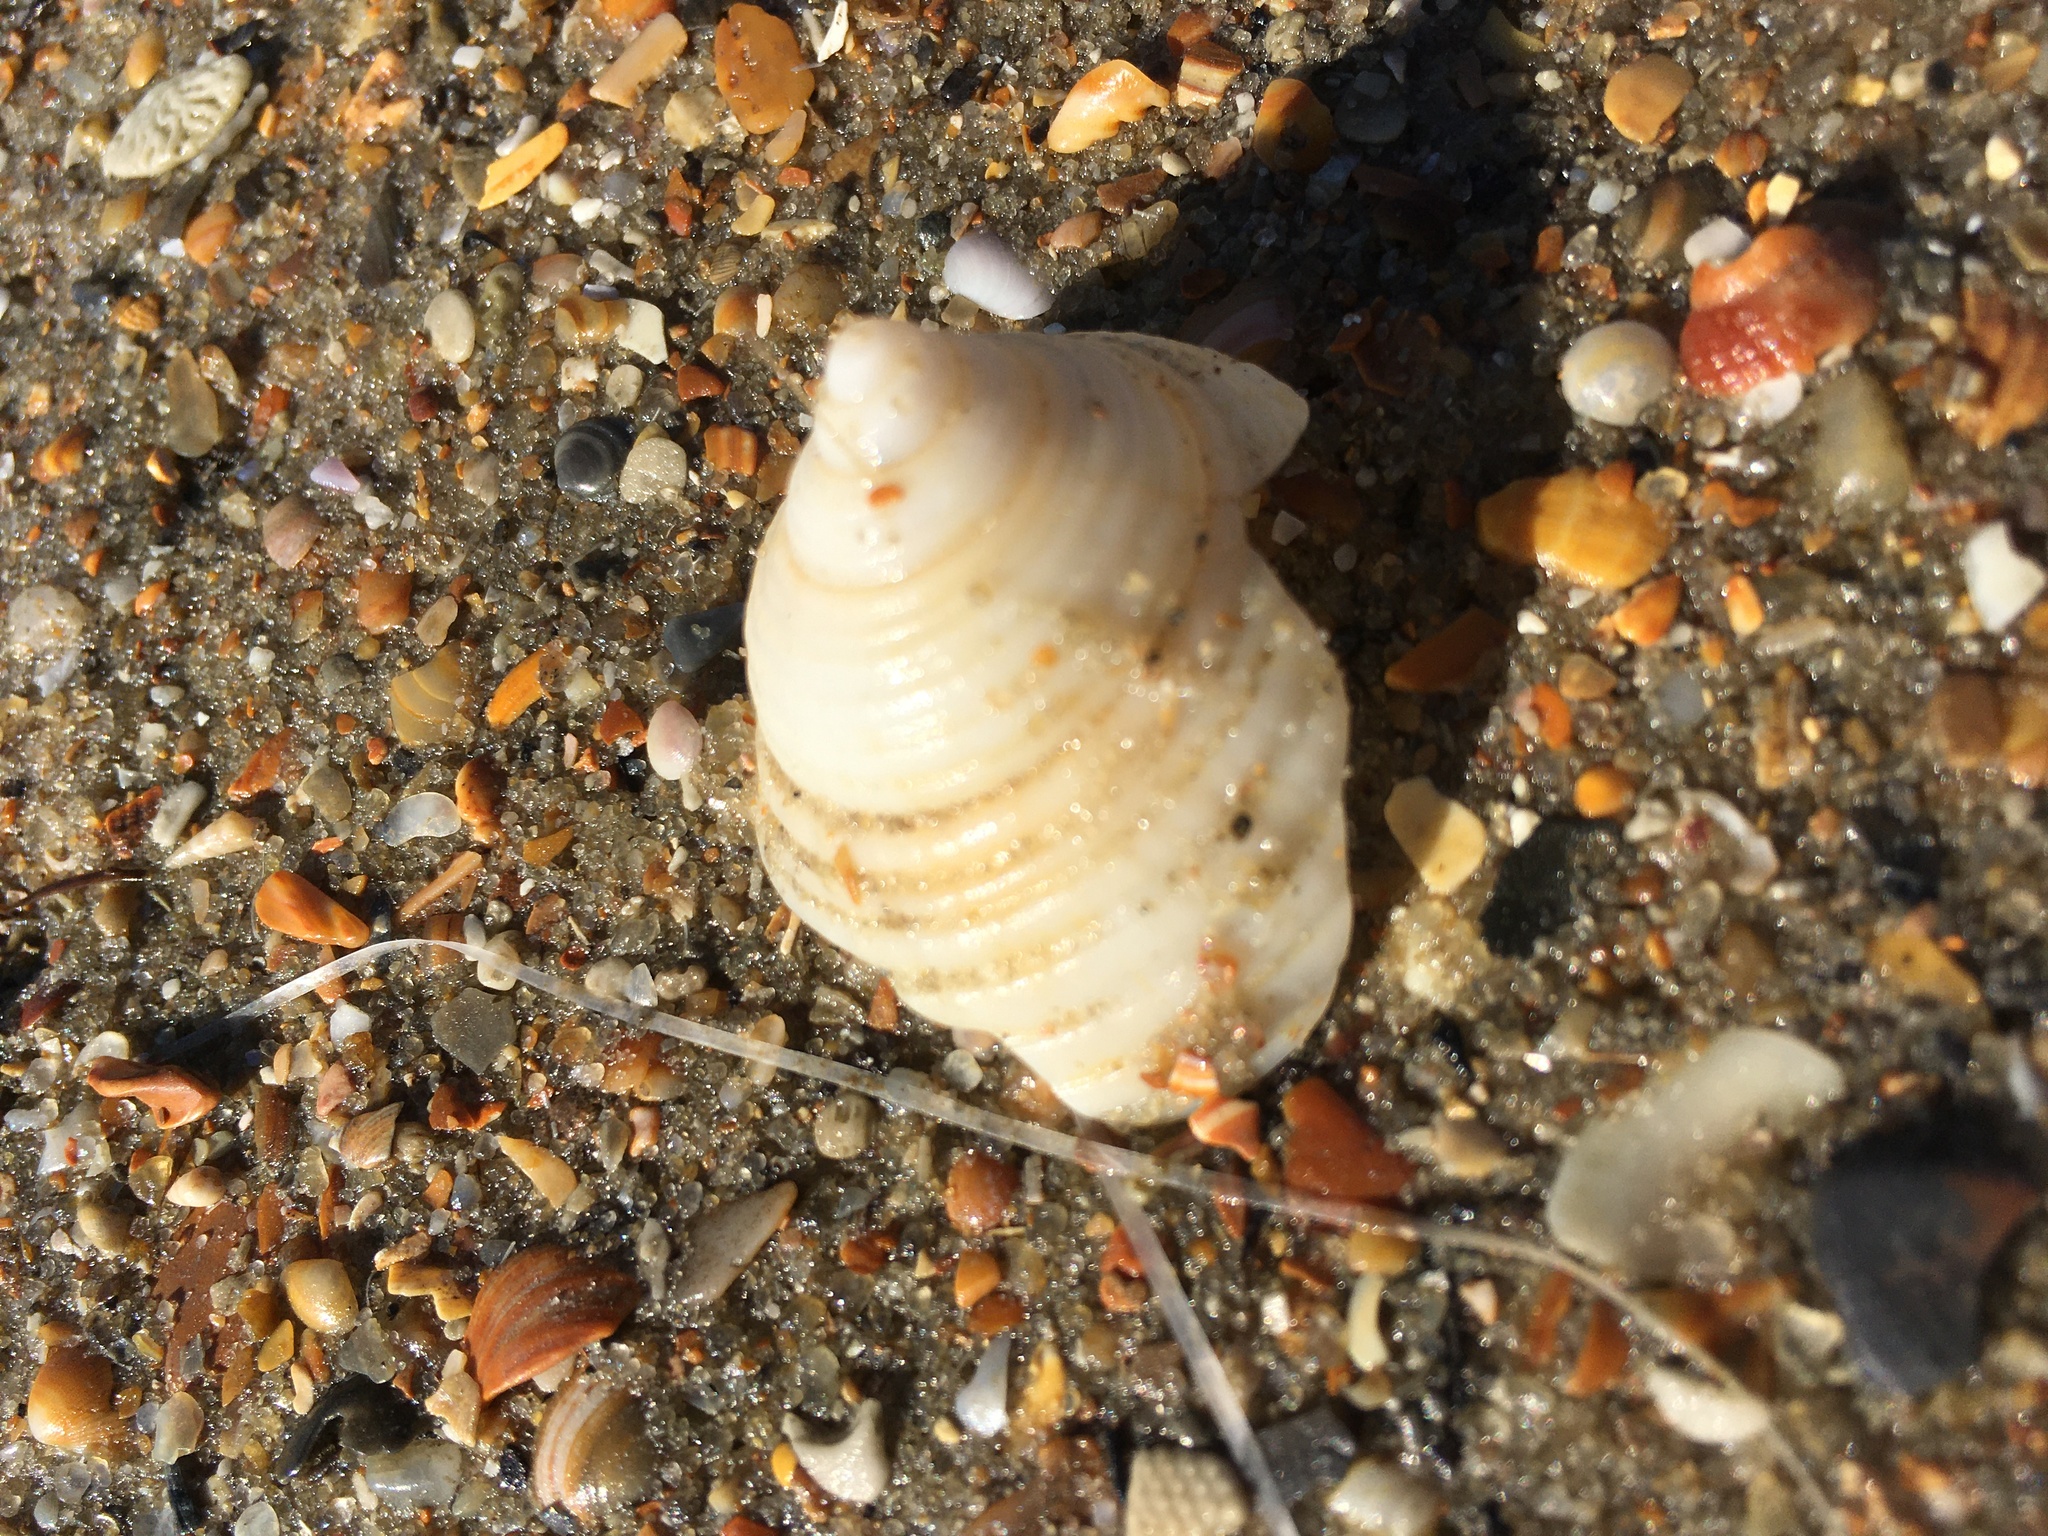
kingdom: Animalia
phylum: Mollusca
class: Gastropoda
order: Littorinimorpha
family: Cassidae
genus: Semicassis
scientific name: Semicassis granulata
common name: Scotch bonnet
